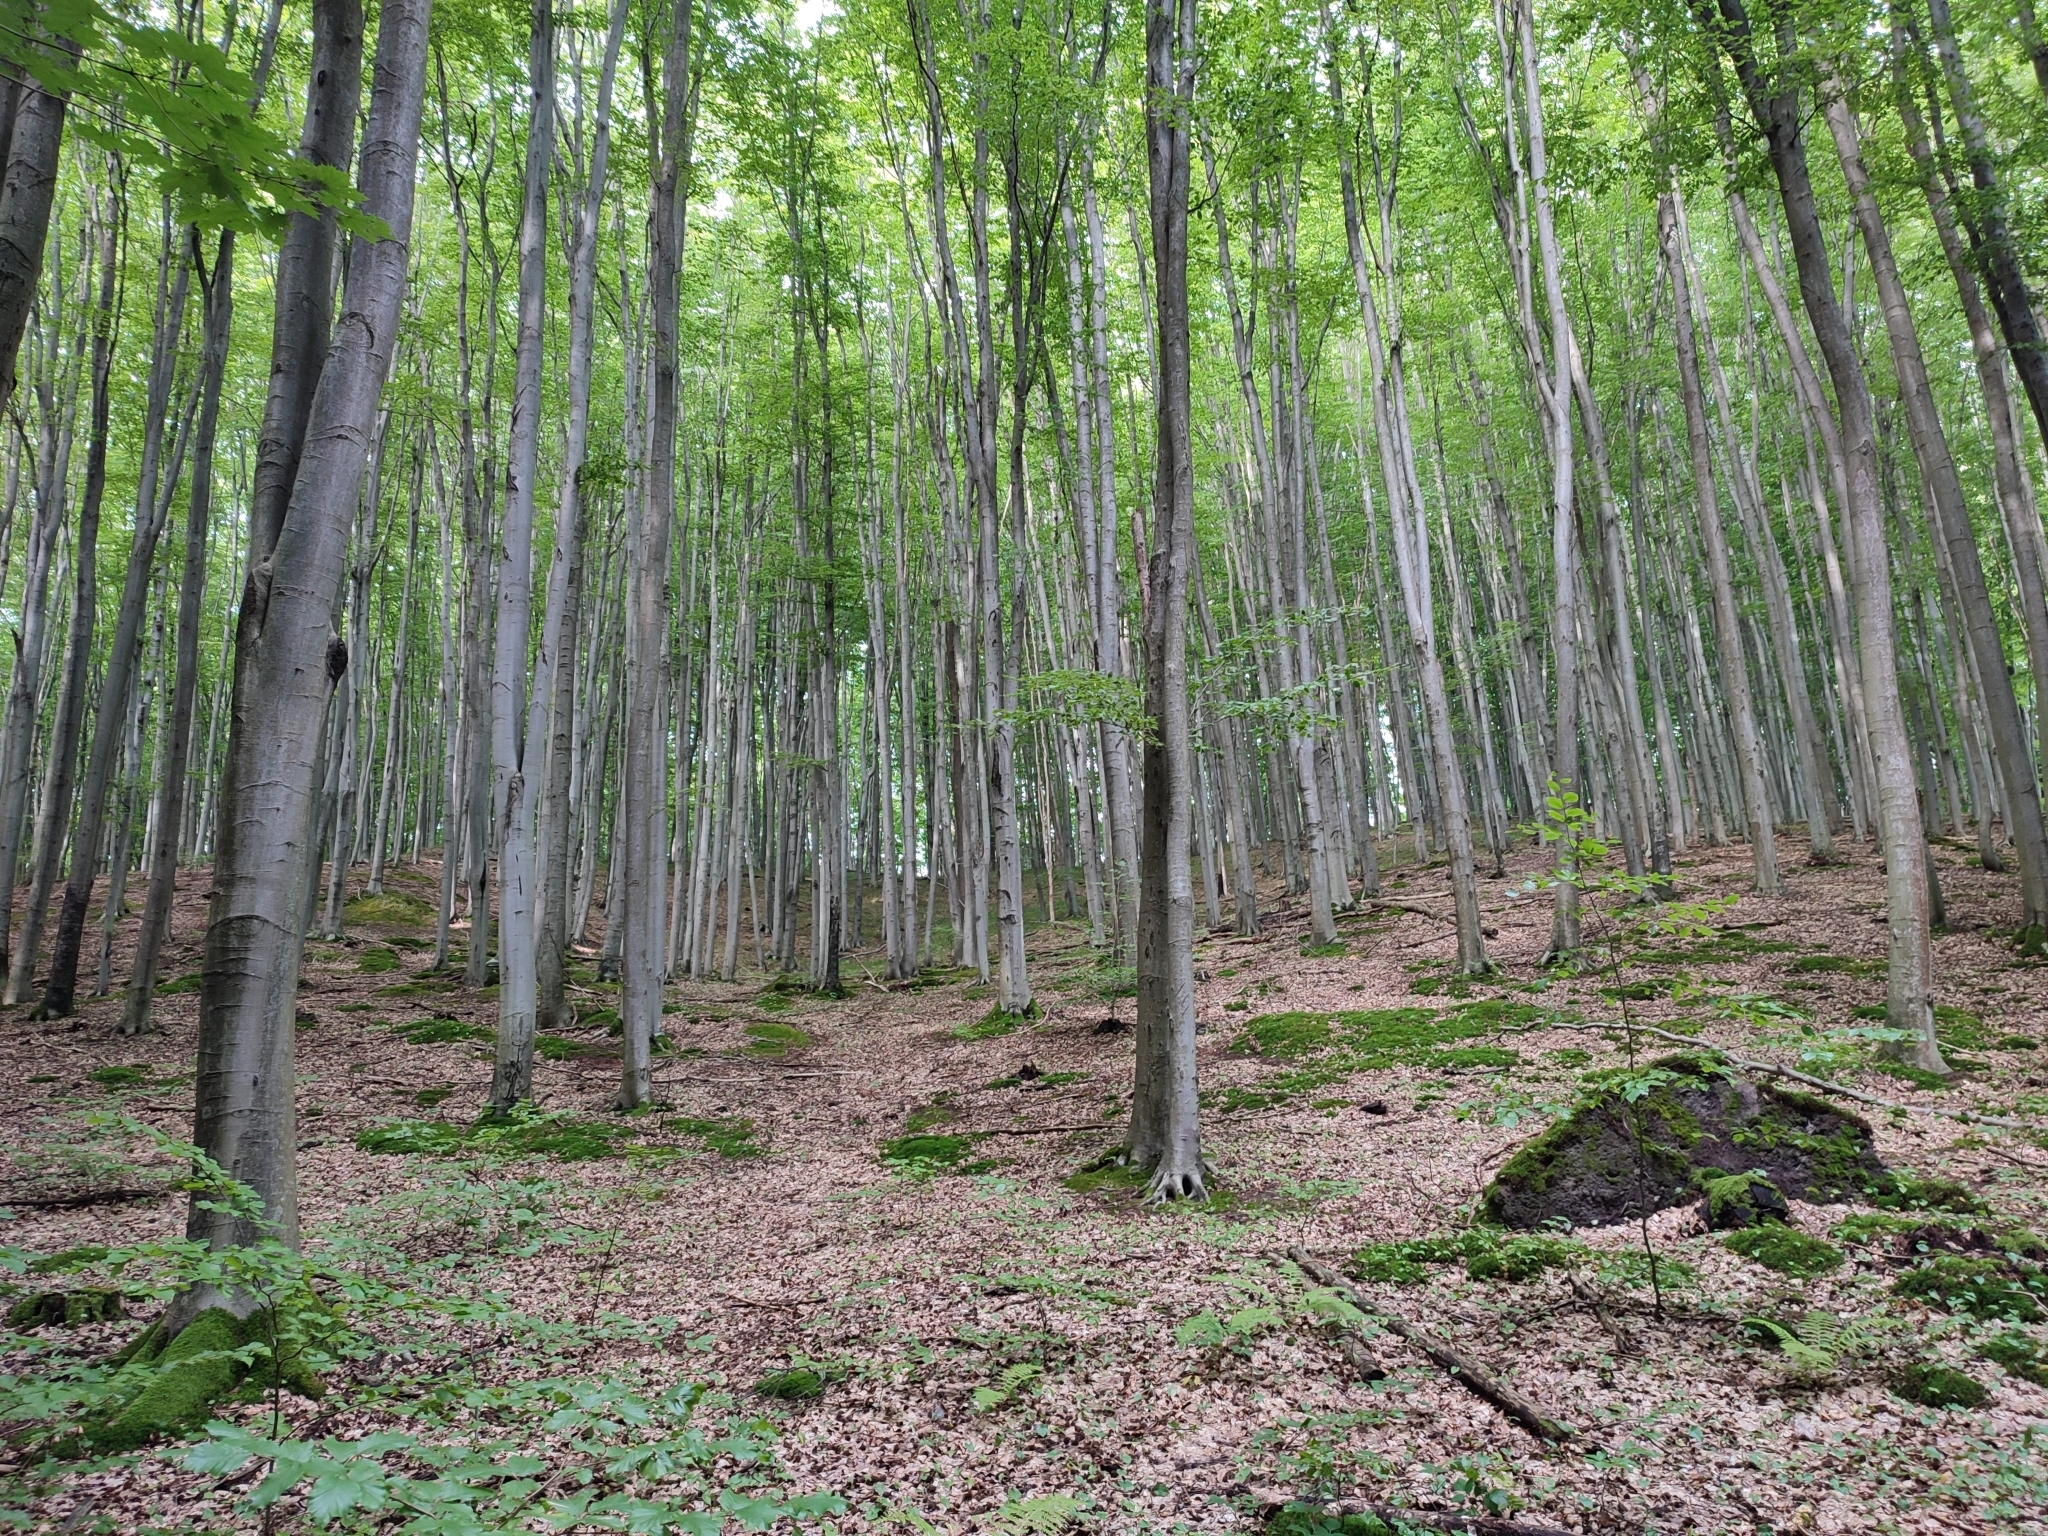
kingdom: Plantae
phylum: Tracheophyta
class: Magnoliopsida
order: Fagales
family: Fagaceae
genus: Fagus
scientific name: Fagus sylvatica
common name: Beech
